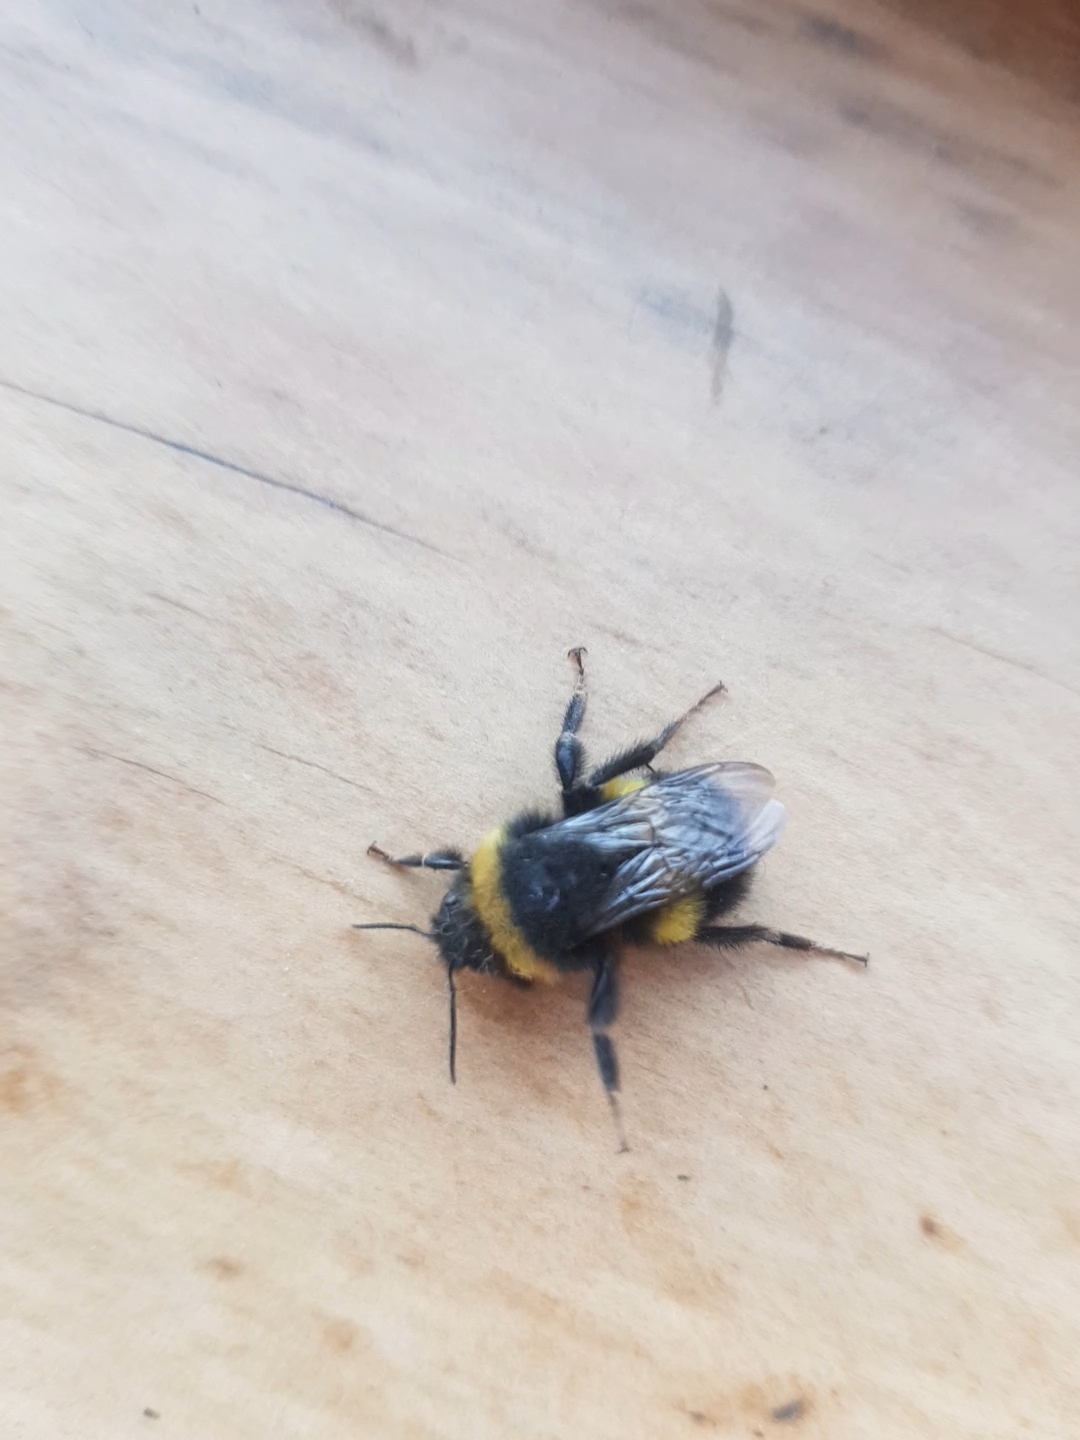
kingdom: Animalia
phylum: Arthropoda
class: Insecta
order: Hymenoptera
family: Apidae
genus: Bombus
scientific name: Bombus terrestris
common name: Buff-tailed bumblebee
